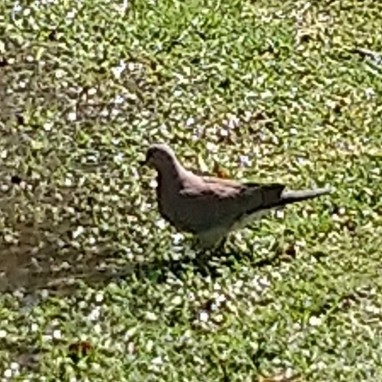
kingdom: Animalia
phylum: Chordata
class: Aves
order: Columbiformes
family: Columbidae
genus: Spilopelia
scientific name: Spilopelia senegalensis
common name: Laughing dove
